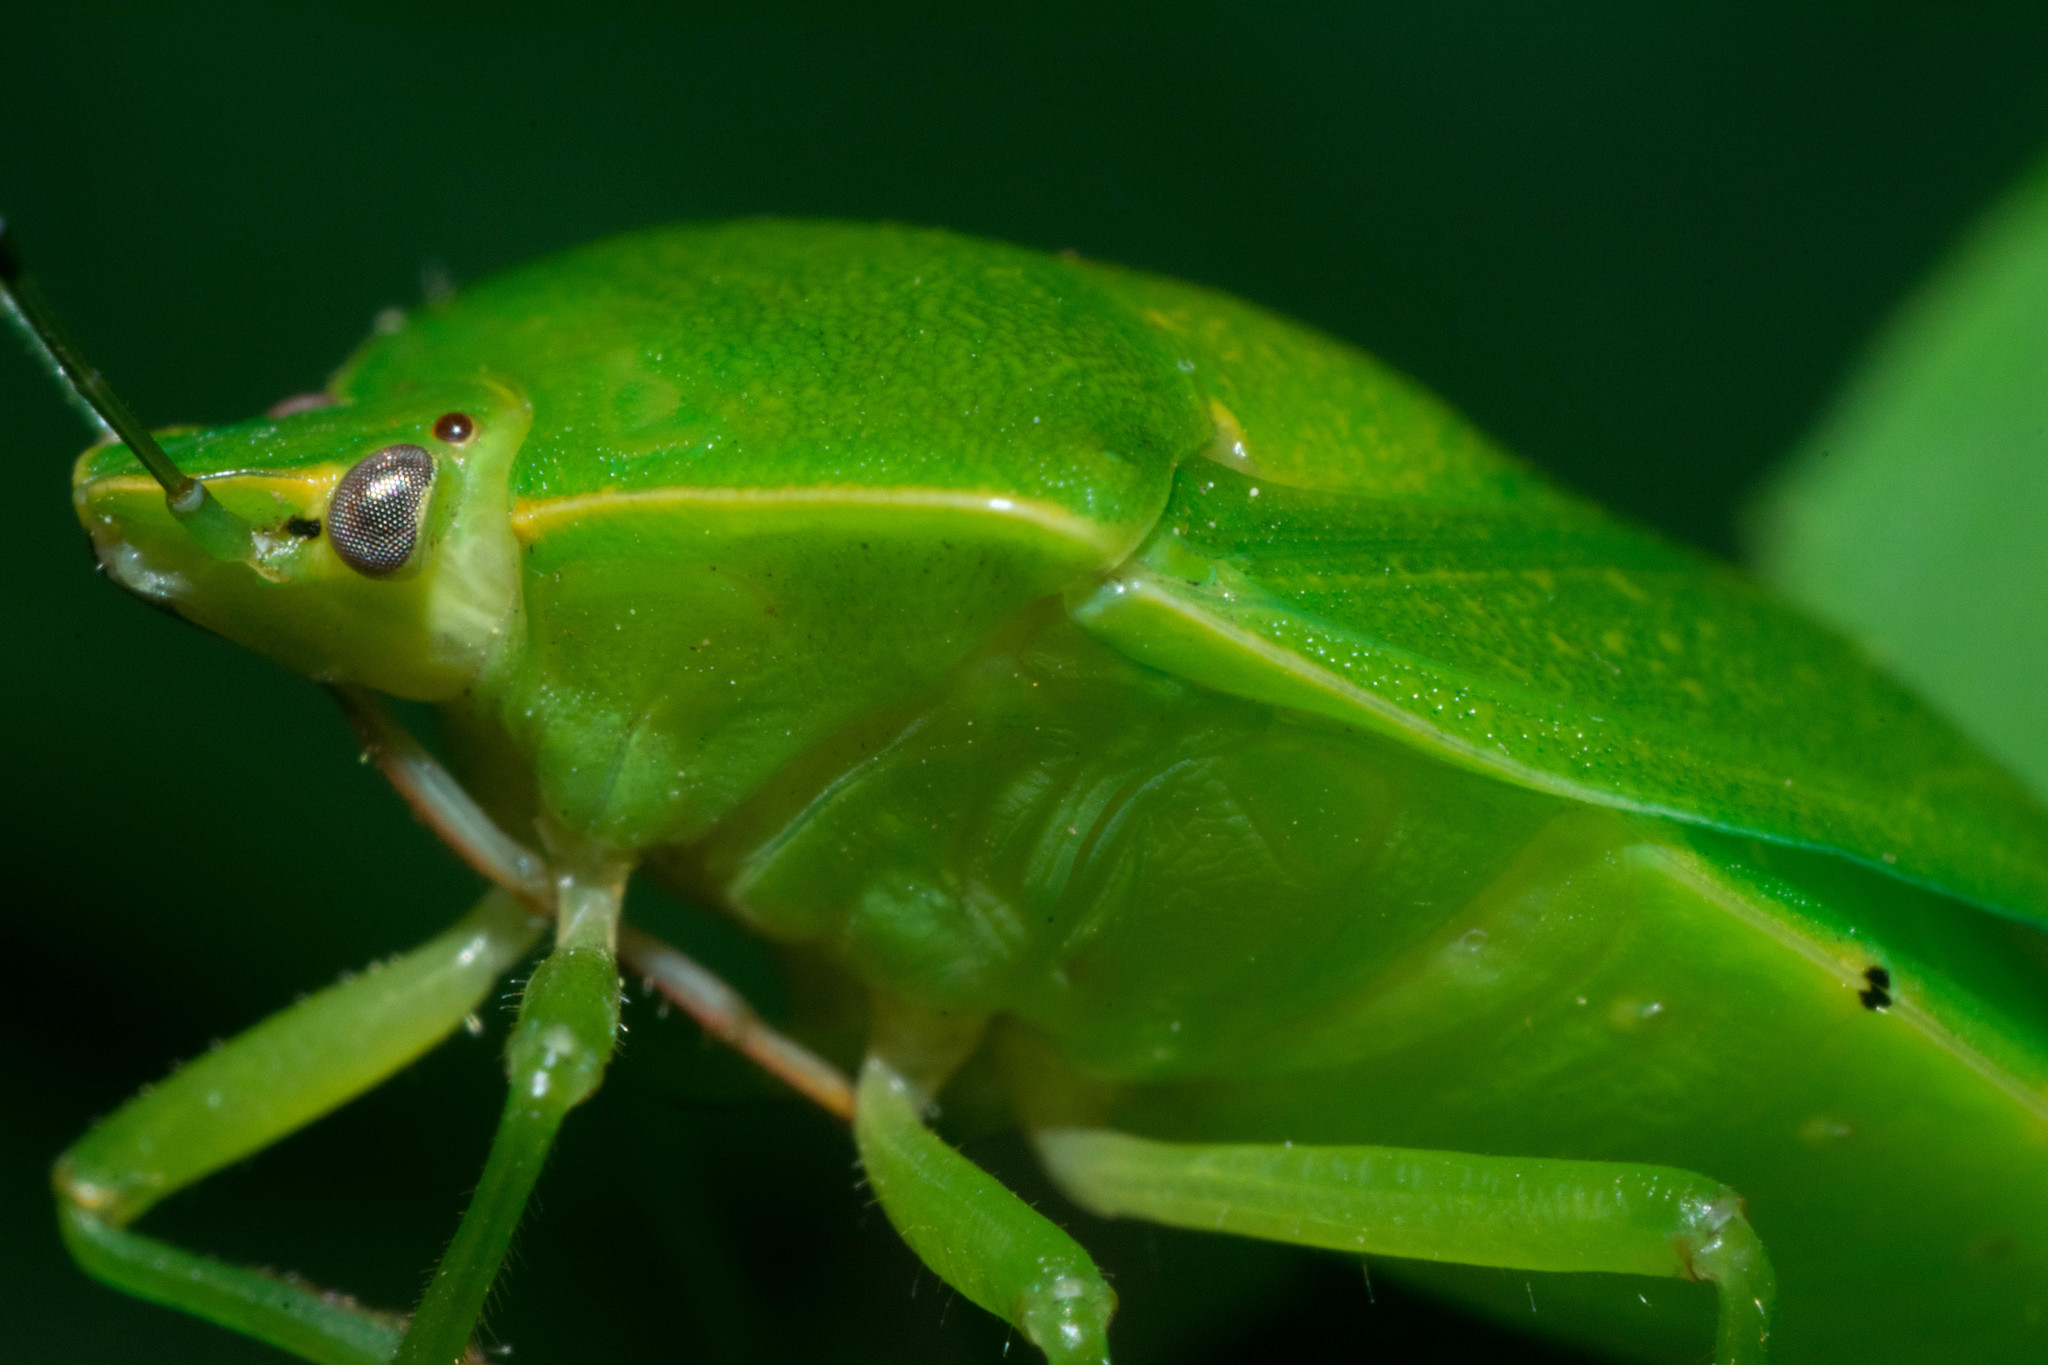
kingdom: Animalia
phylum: Arthropoda
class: Insecta
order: Hemiptera
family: Pentatomidae
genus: Chinavia
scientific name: Chinavia hilaris
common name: Green stink bug
